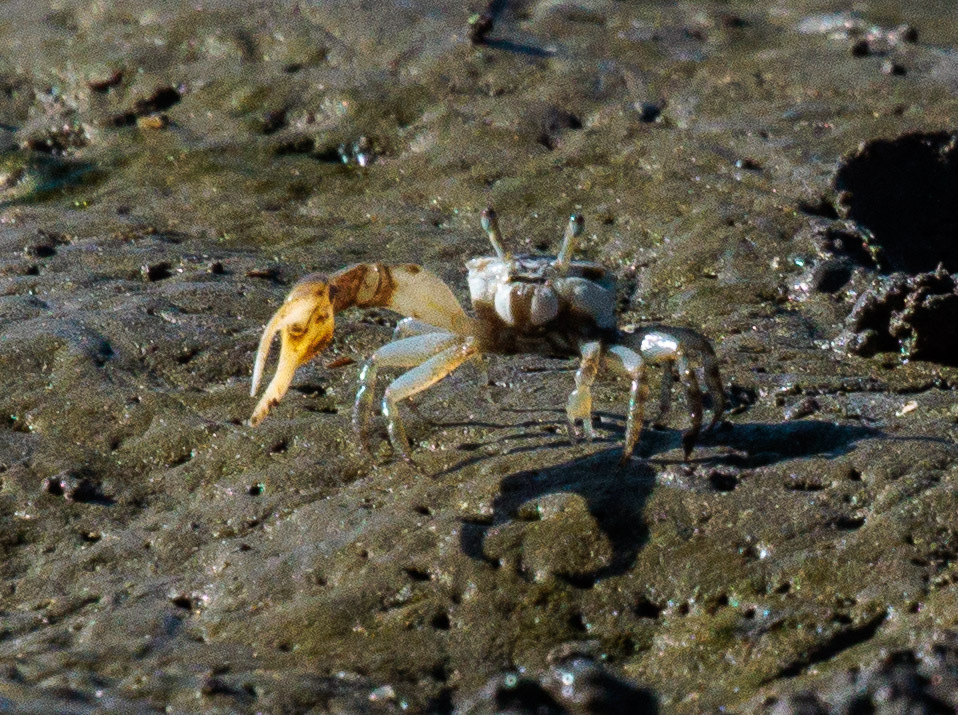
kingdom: Animalia
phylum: Arthropoda
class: Malacostraca
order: Decapoda
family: Ocypodidae
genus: Leptuca
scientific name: Leptuca leptodactyla
